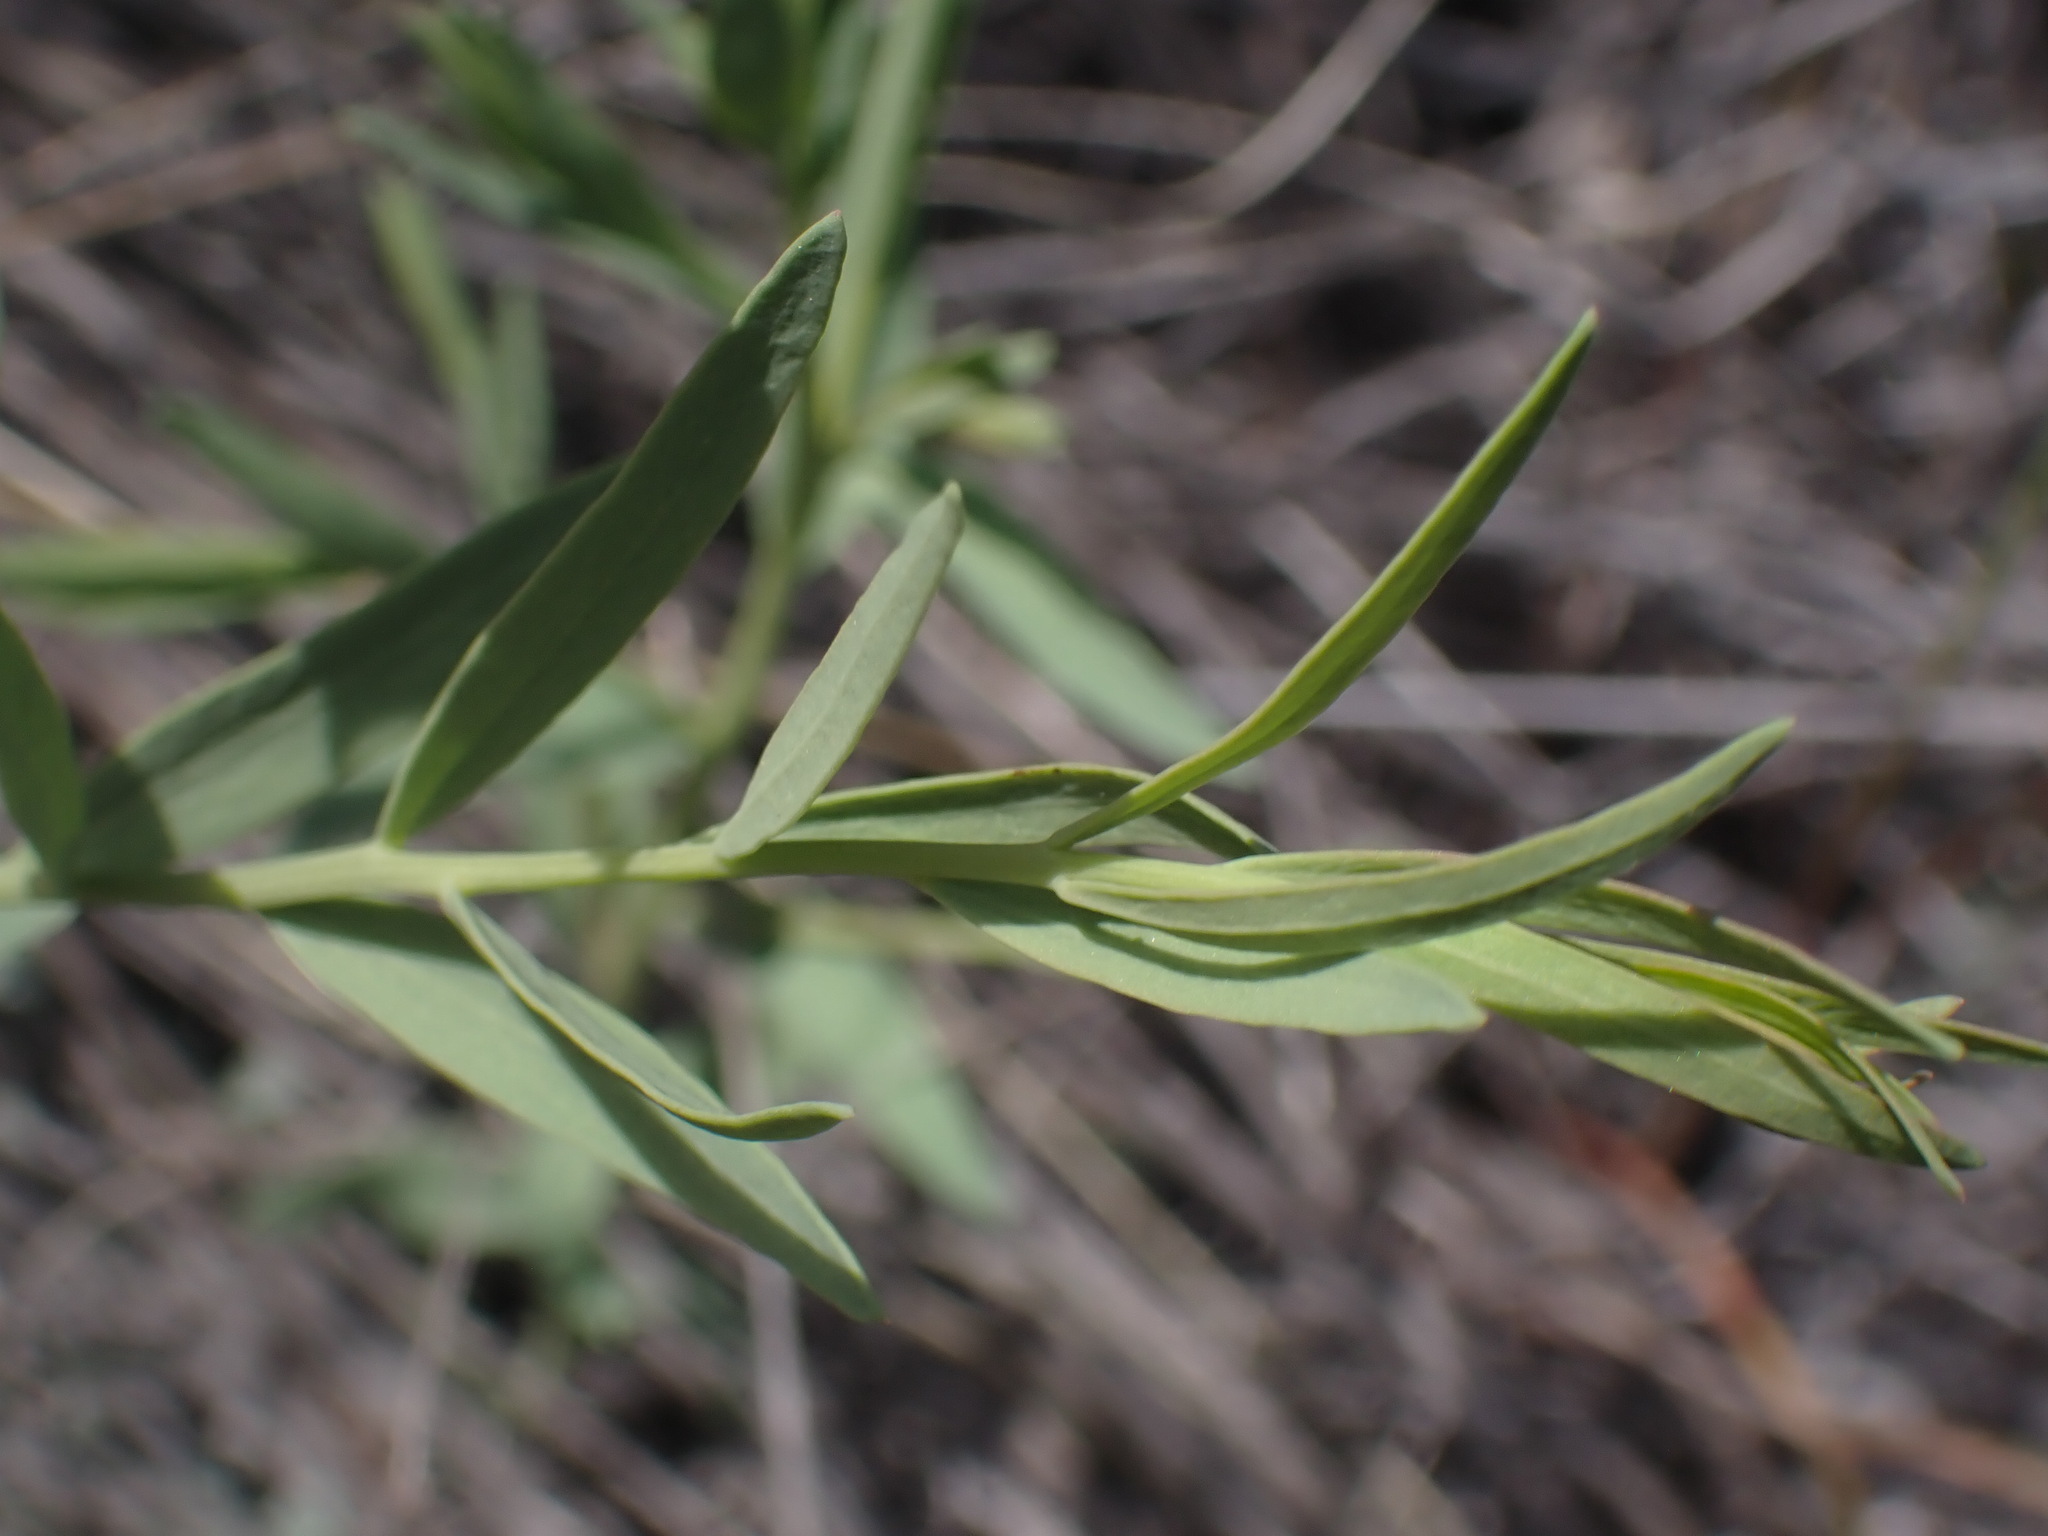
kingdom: Plantae
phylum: Tracheophyta
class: Magnoliopsida
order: Santalales
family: Comandraceae
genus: Comandra
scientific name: Comandra umbellata
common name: Bastard toadflax
